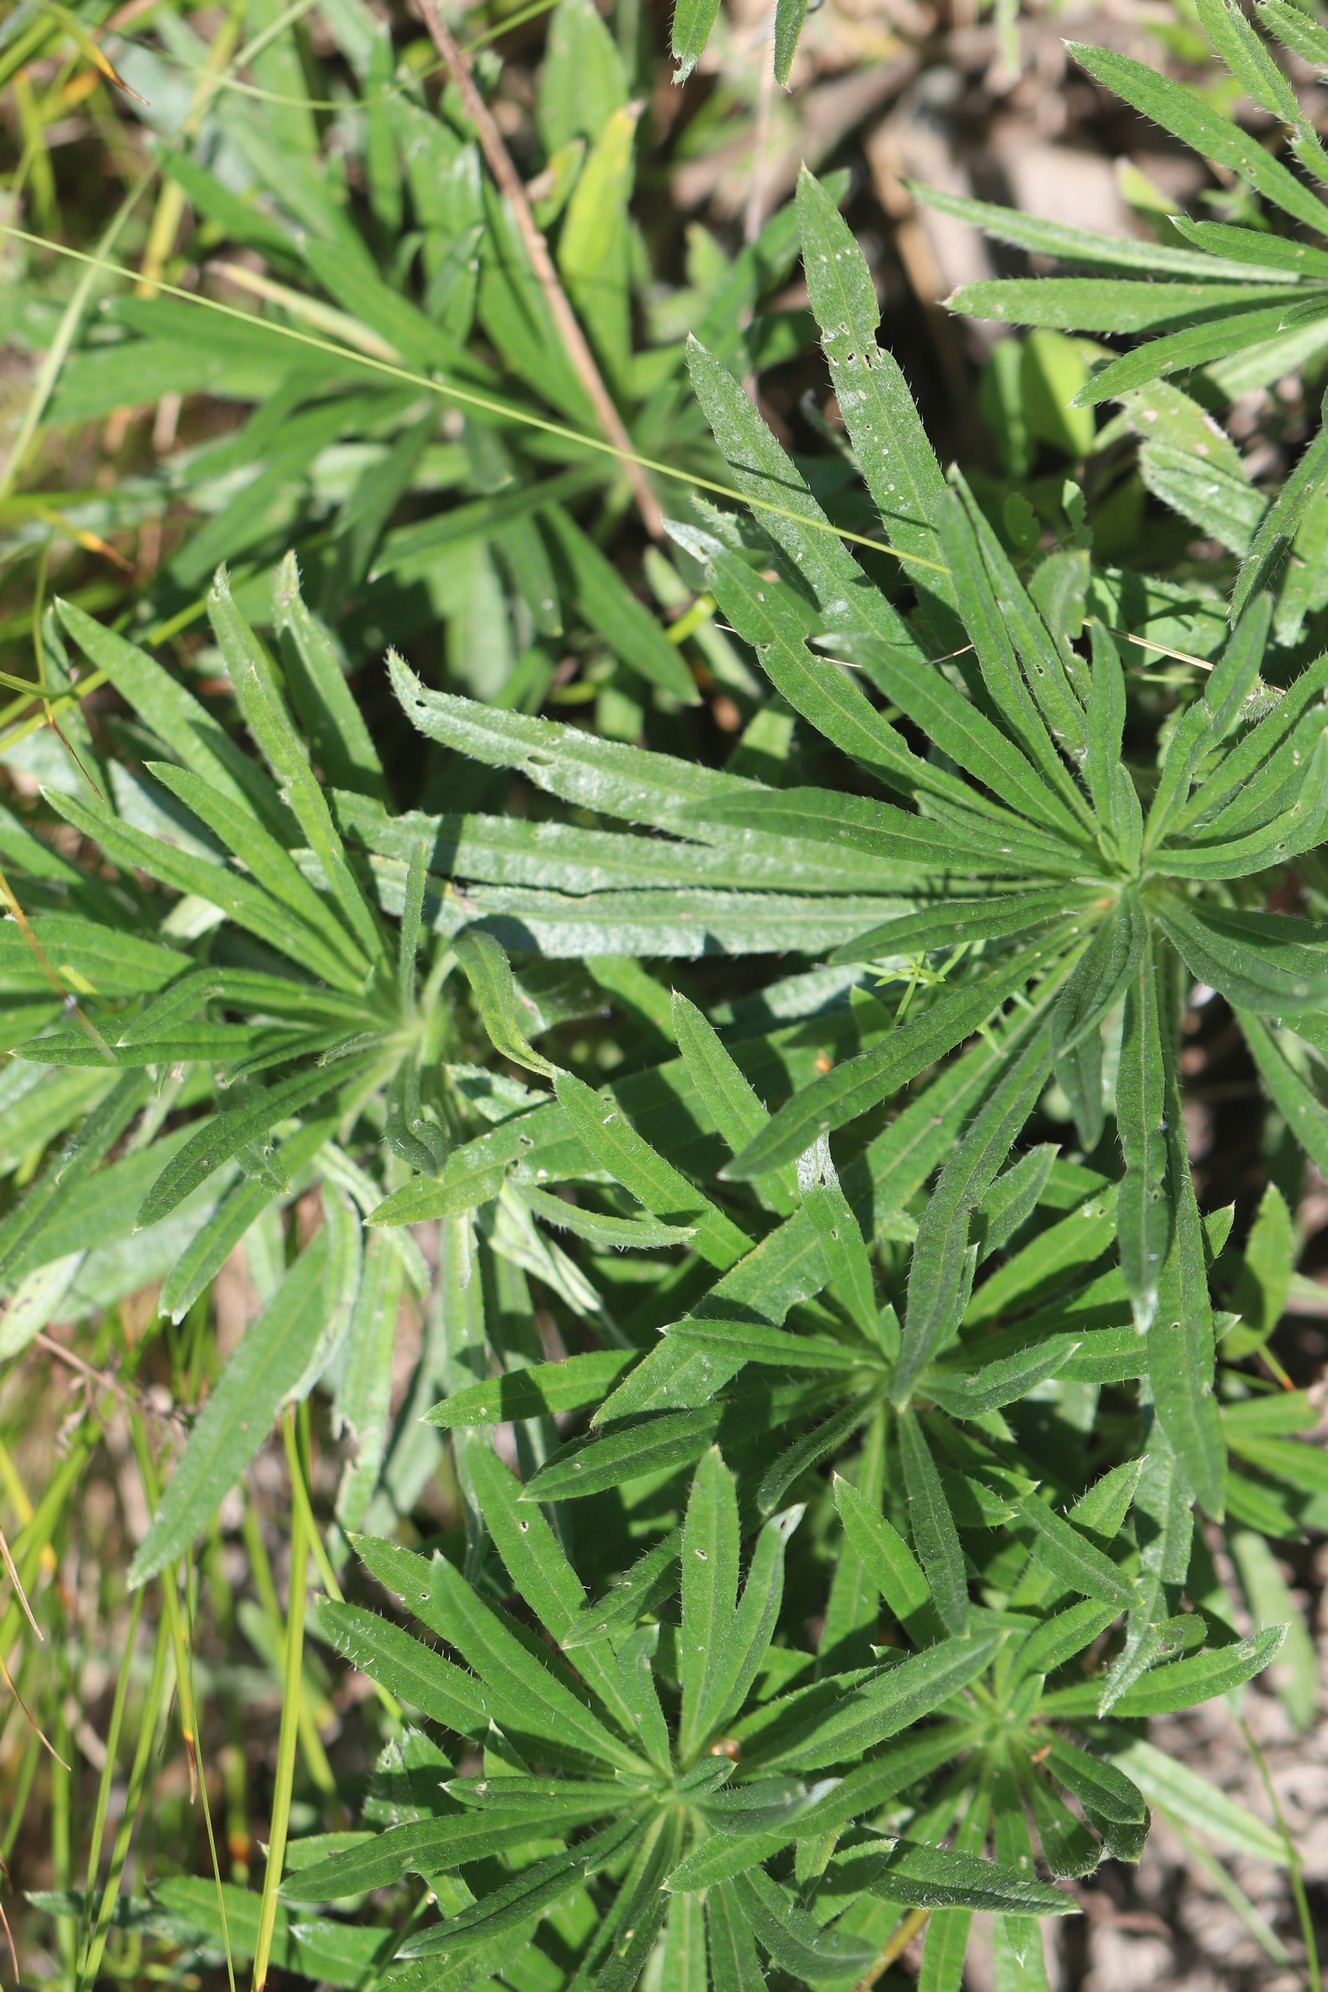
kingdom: Plantae
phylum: Tracheophyta
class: Magnoliopsida
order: Boraginales
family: Boraginaceae
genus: Onosma
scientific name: Onosma simplicissima
